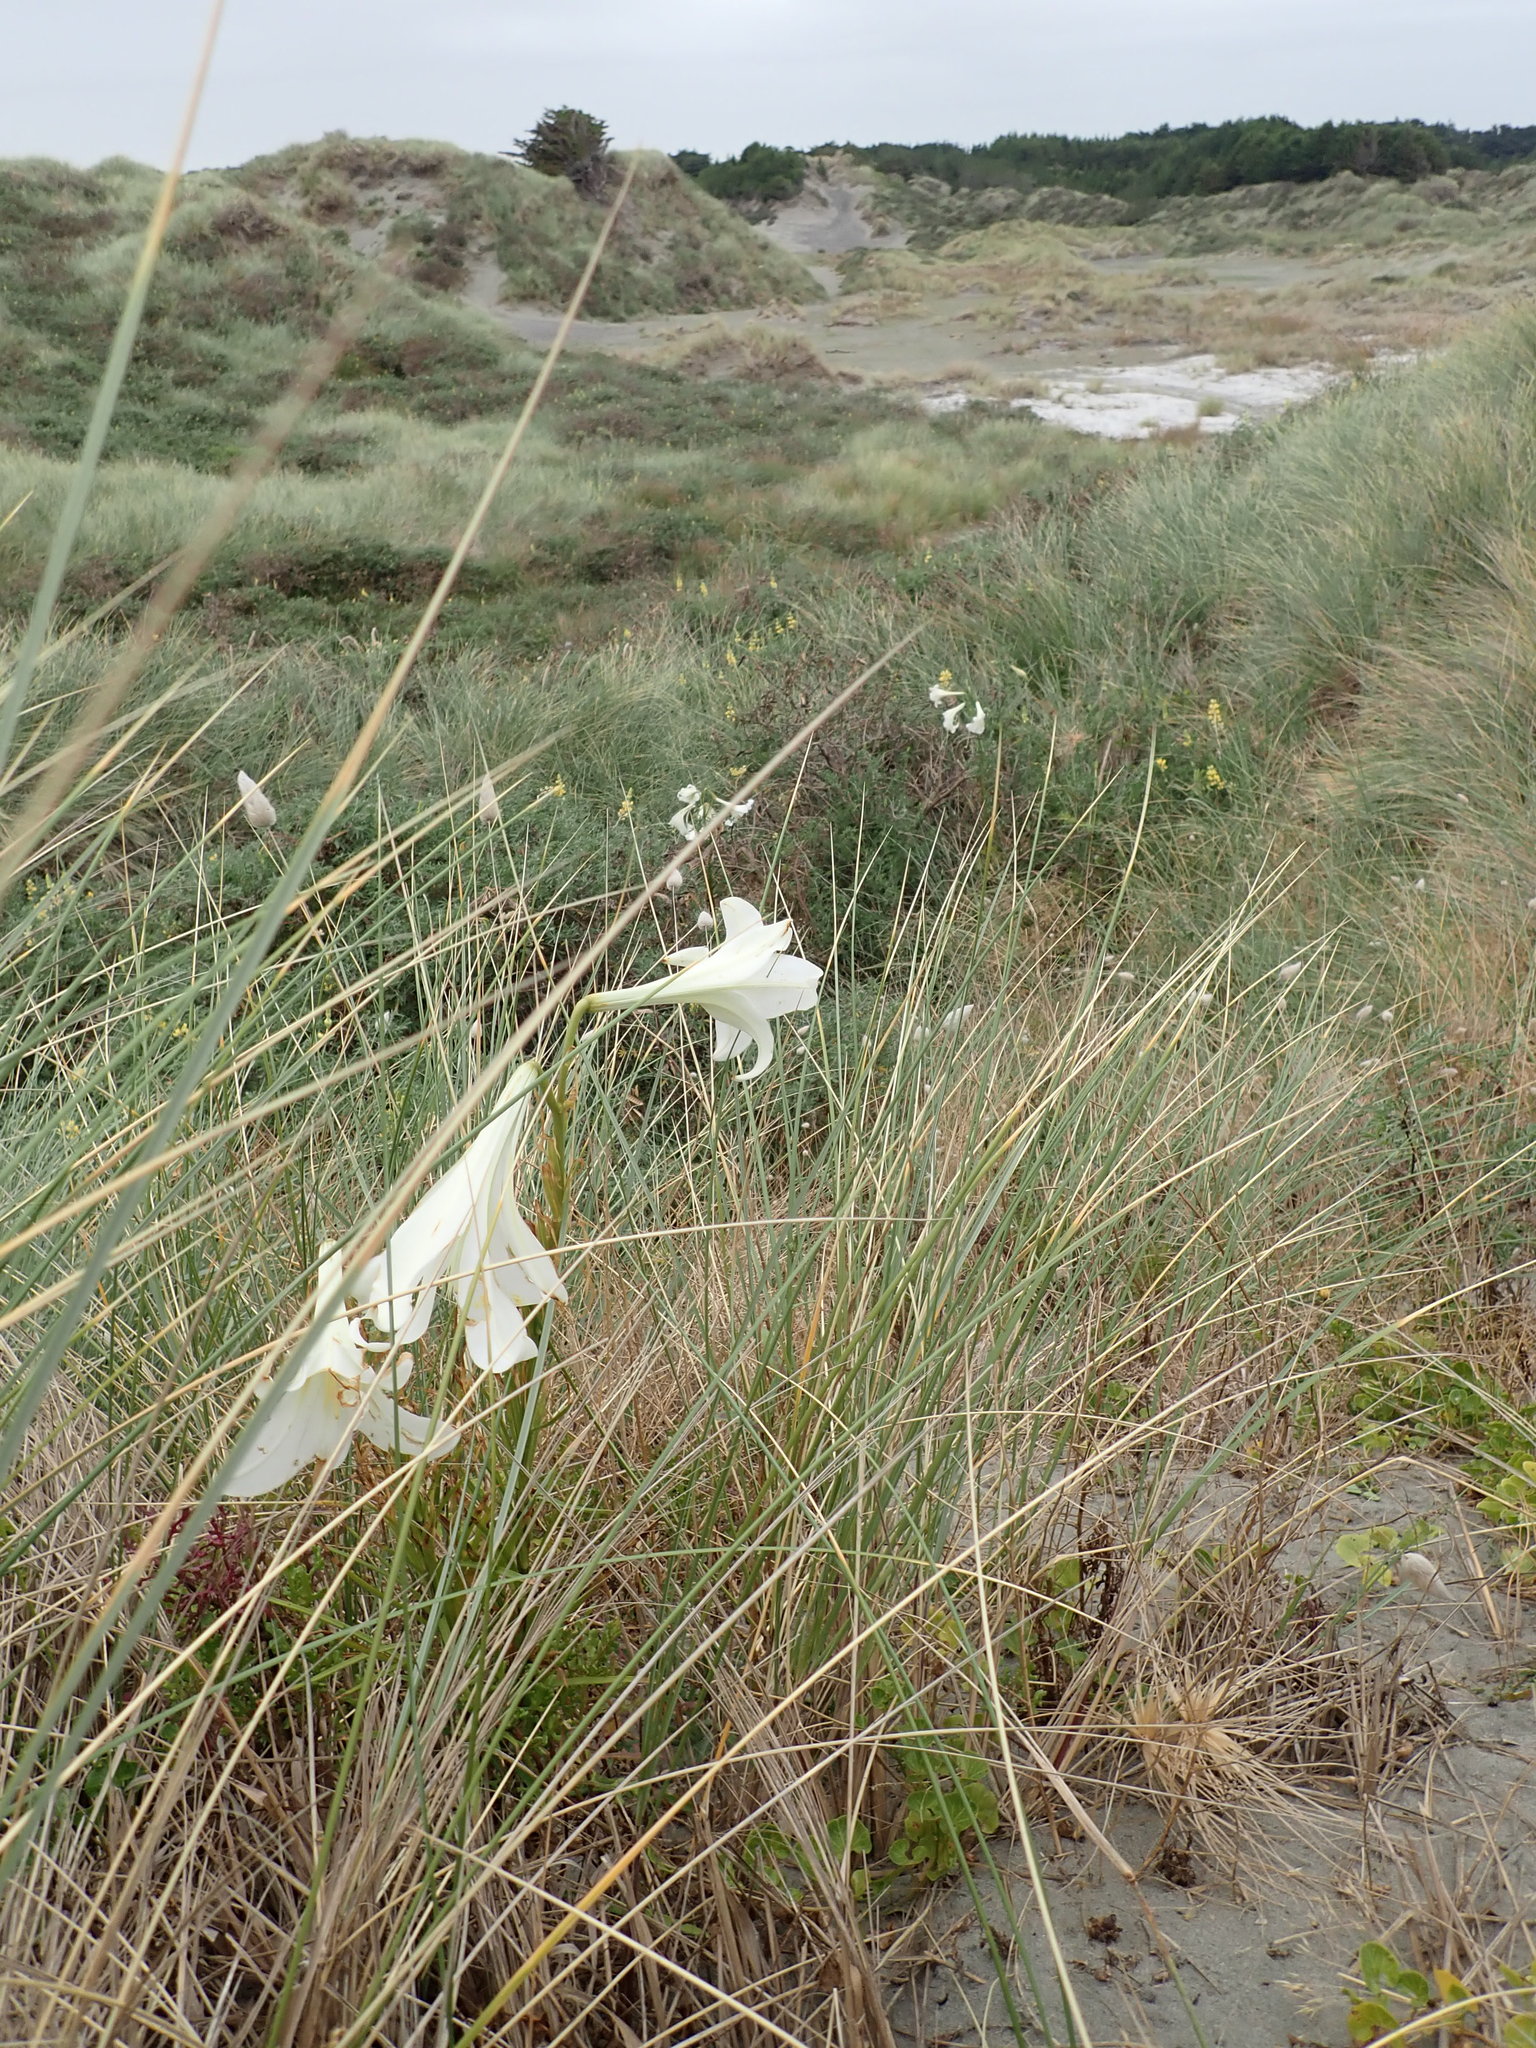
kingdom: Plantae
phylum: Tracheophyta
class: Liliopsida
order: Liliales
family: Liliaceae
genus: Lilium
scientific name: Lilium formosanum
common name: Formosa lily
